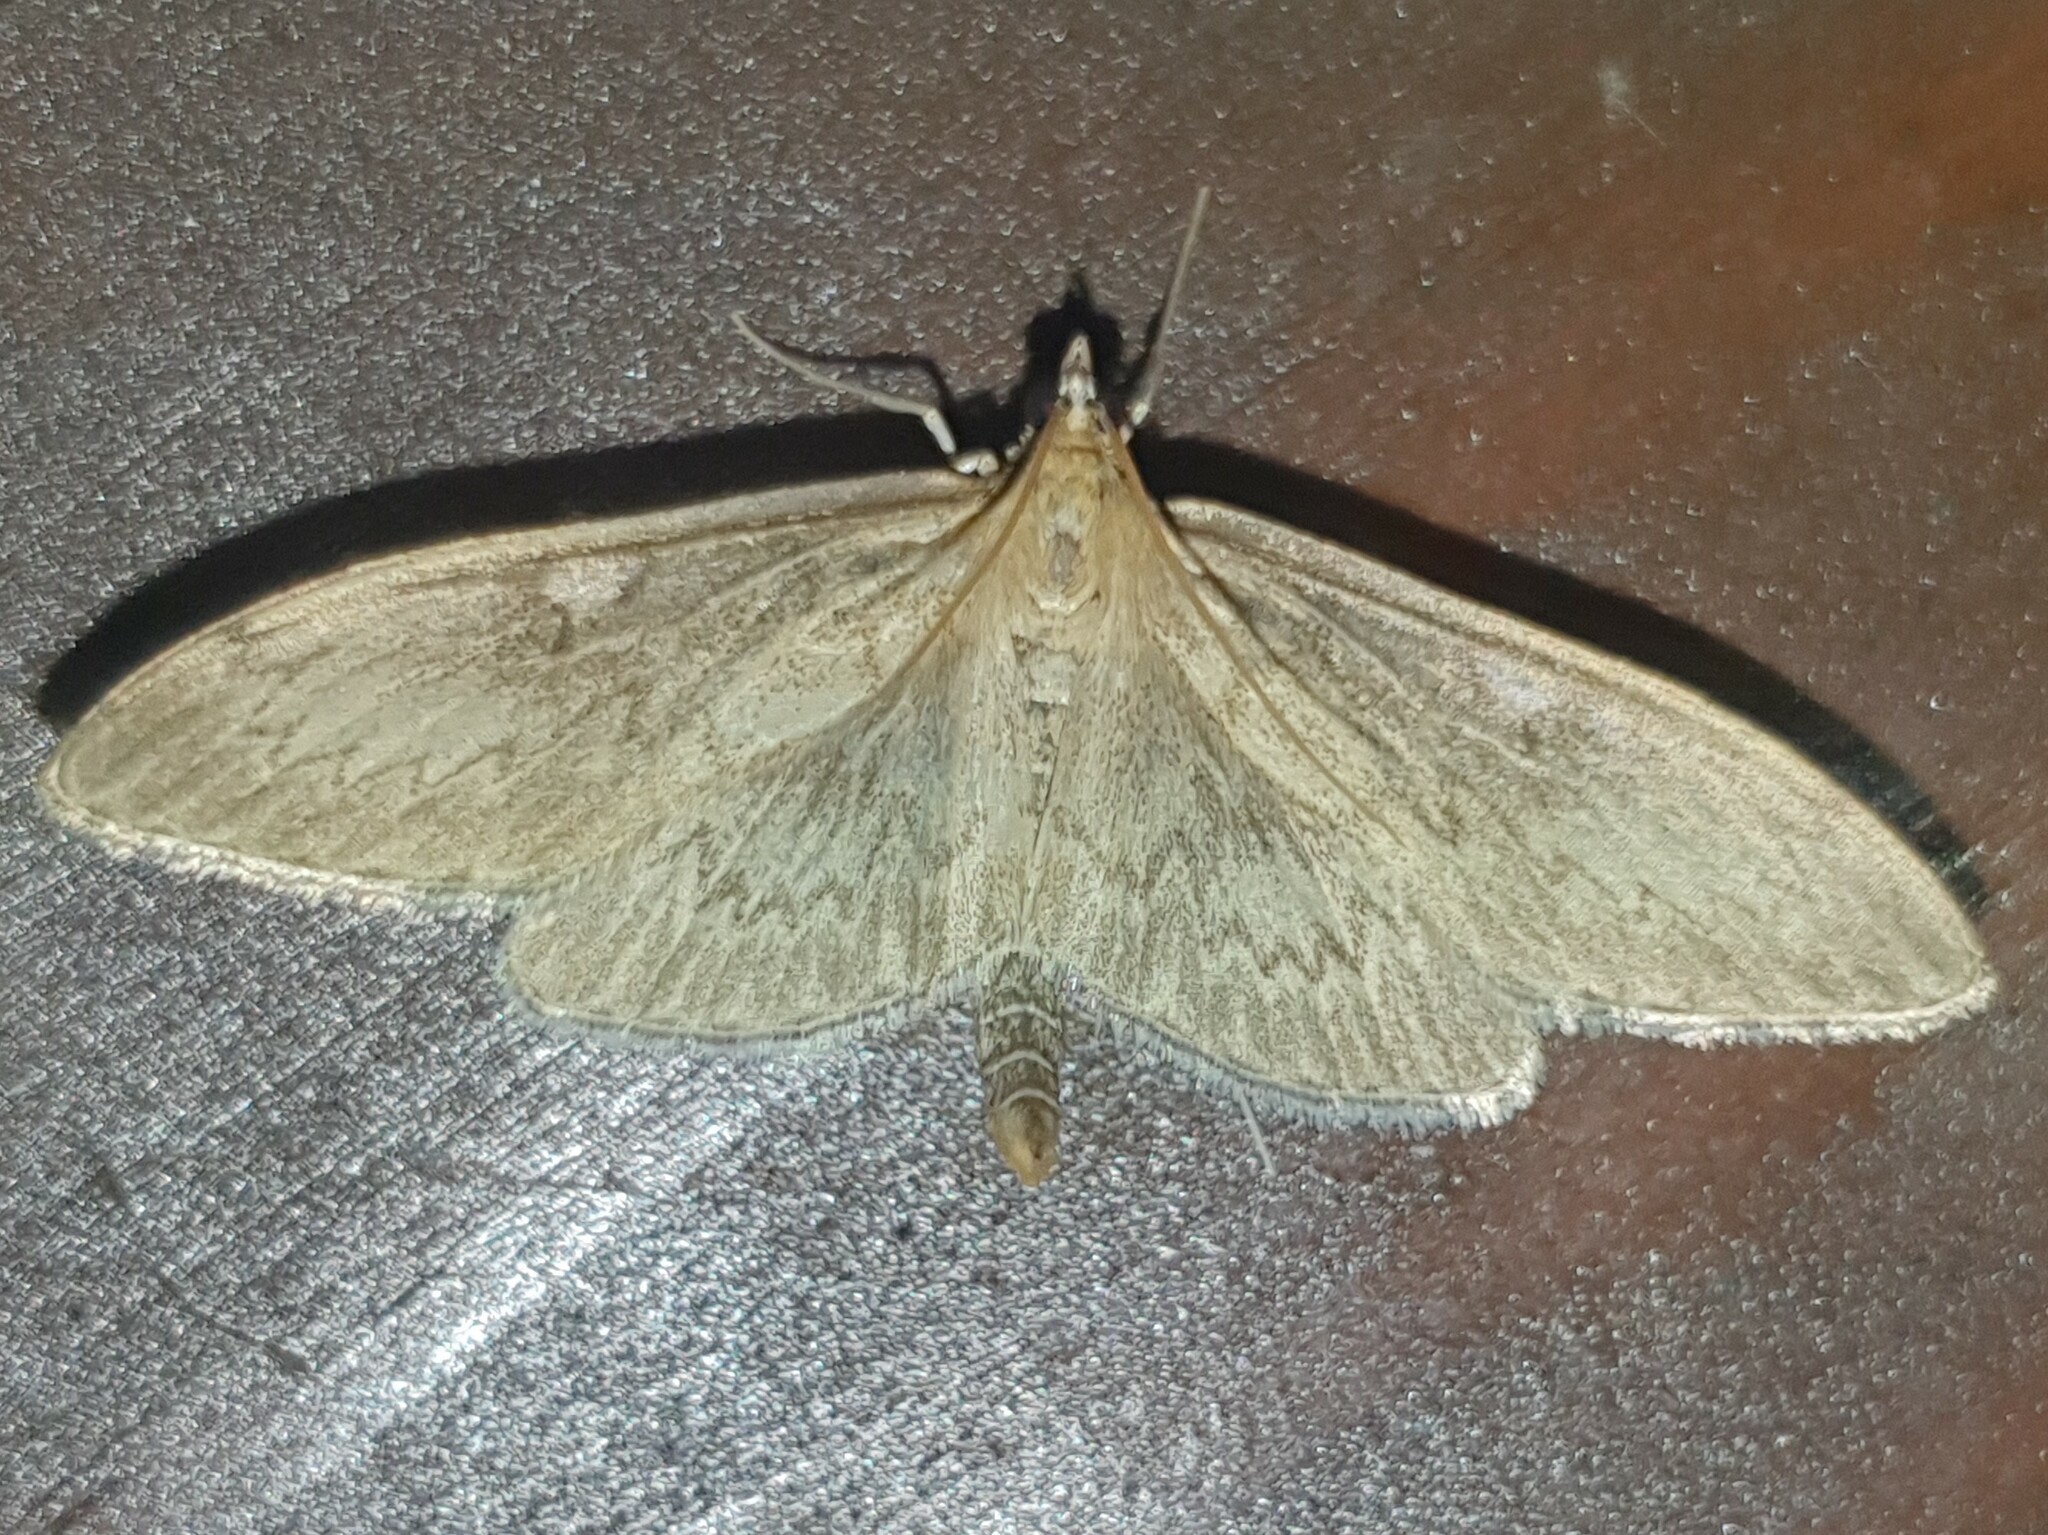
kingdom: Animalia
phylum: Arthropoda
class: Insecta
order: Lepidoptera
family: Crambidae
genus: Anania
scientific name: Anania lancealis
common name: Long-winged pearl
